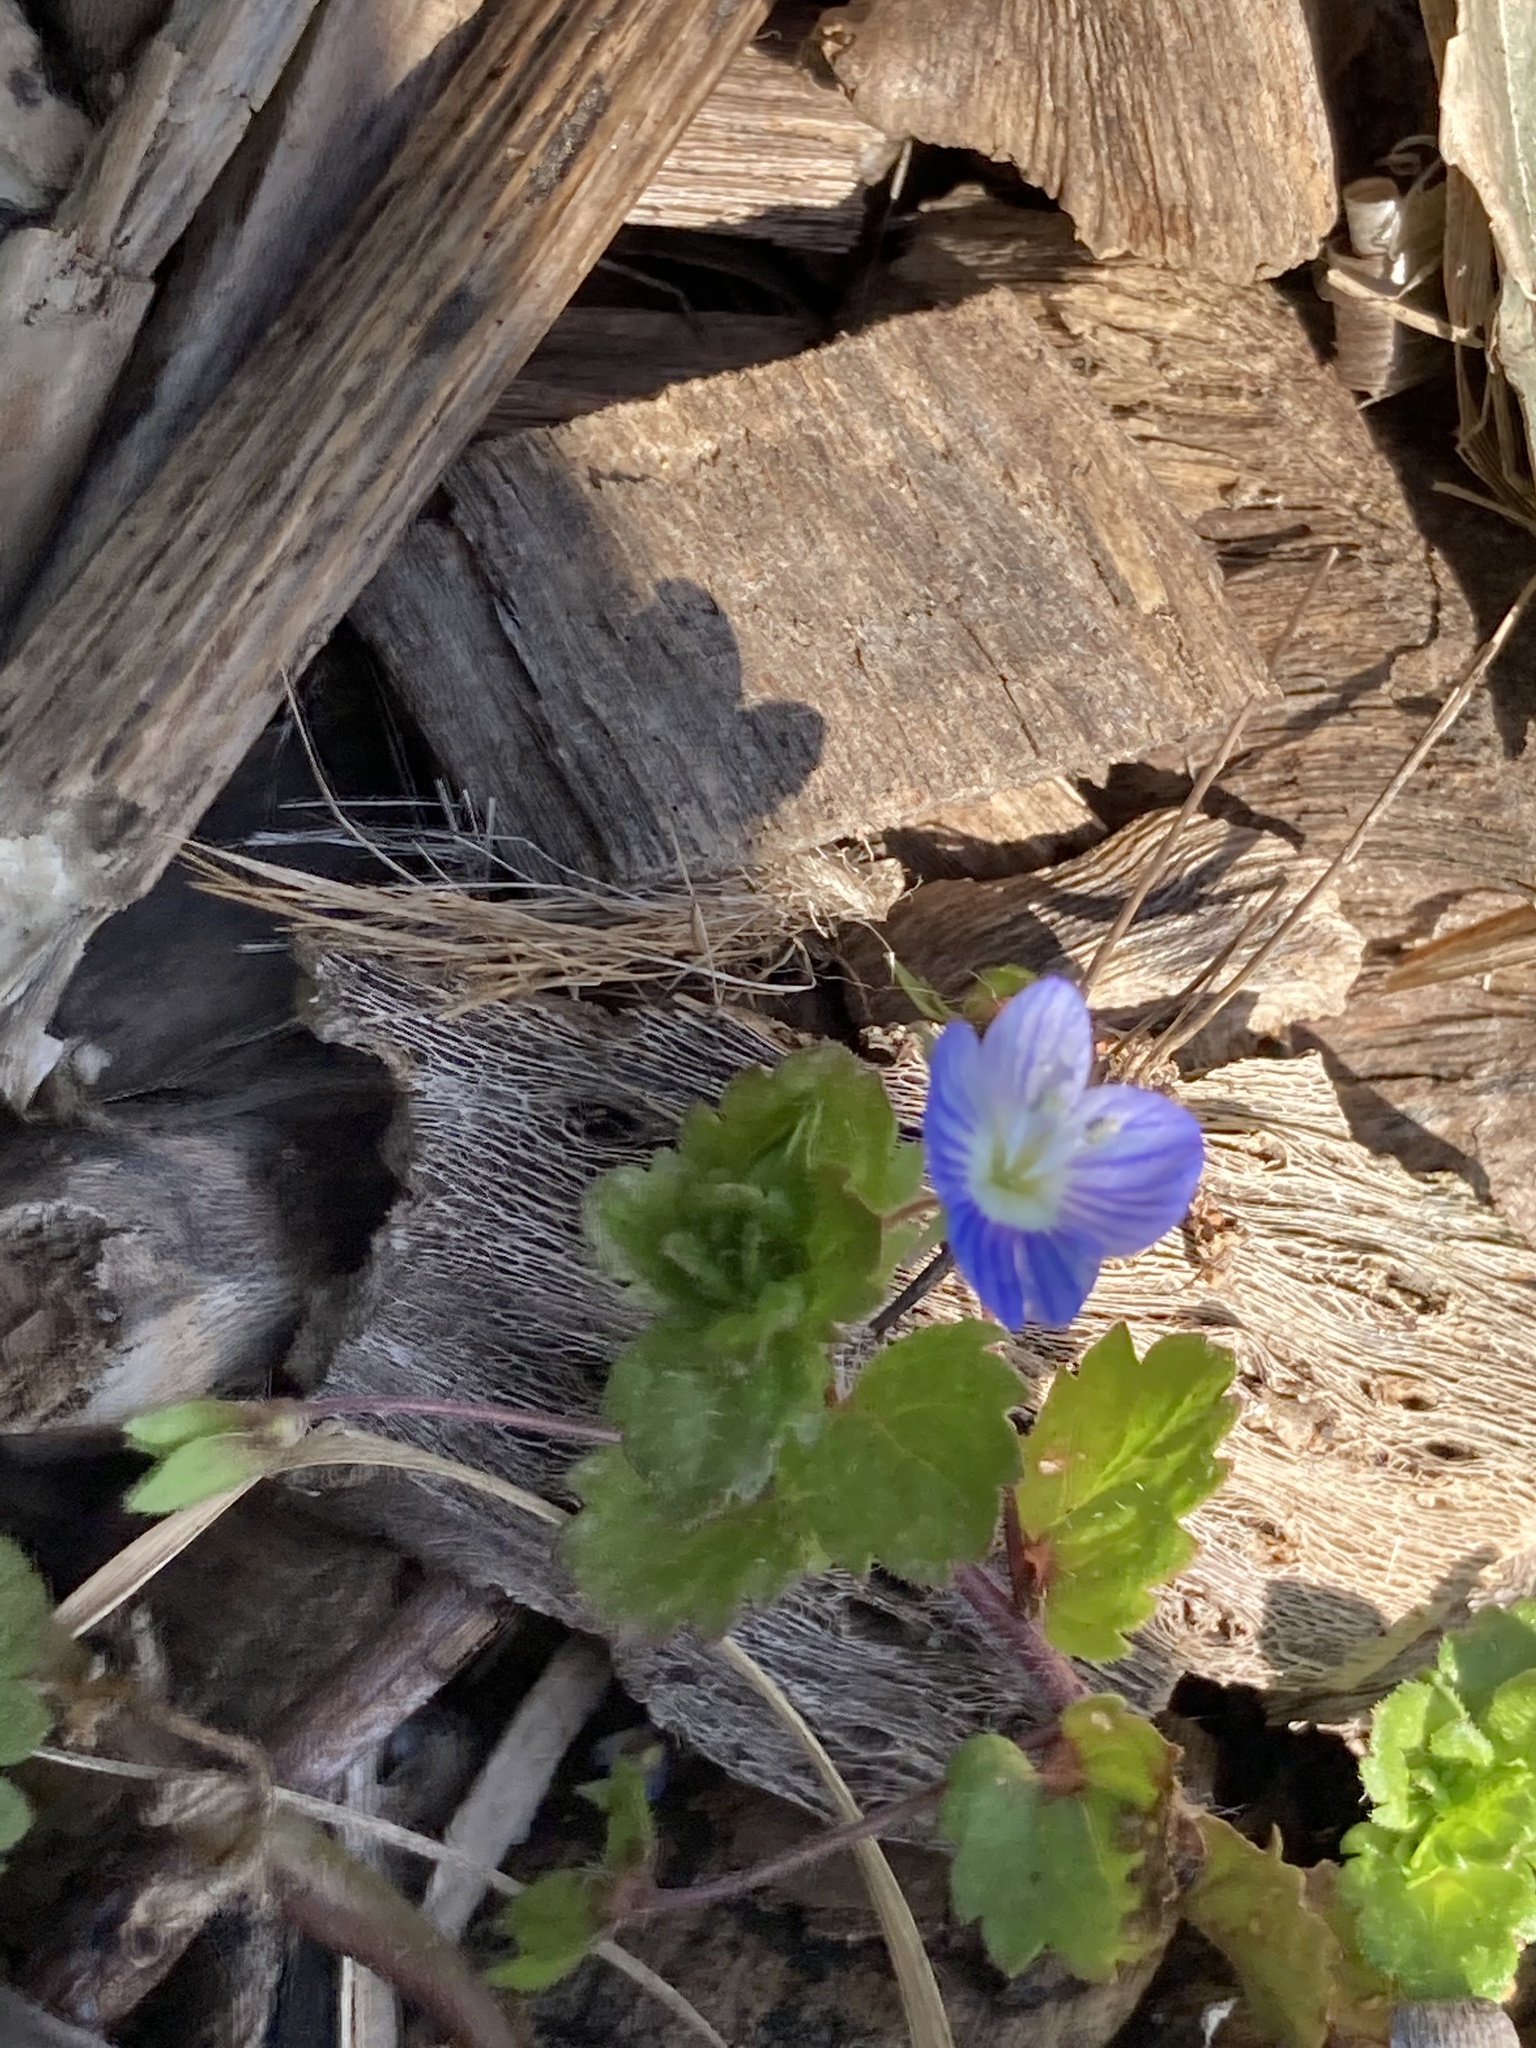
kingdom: Plantae
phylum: Tracheophyta
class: Magnoliopsida
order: Lamiales
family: Plantaginaceae
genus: Veronica
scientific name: Veronica persica
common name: Common field-speedwell
